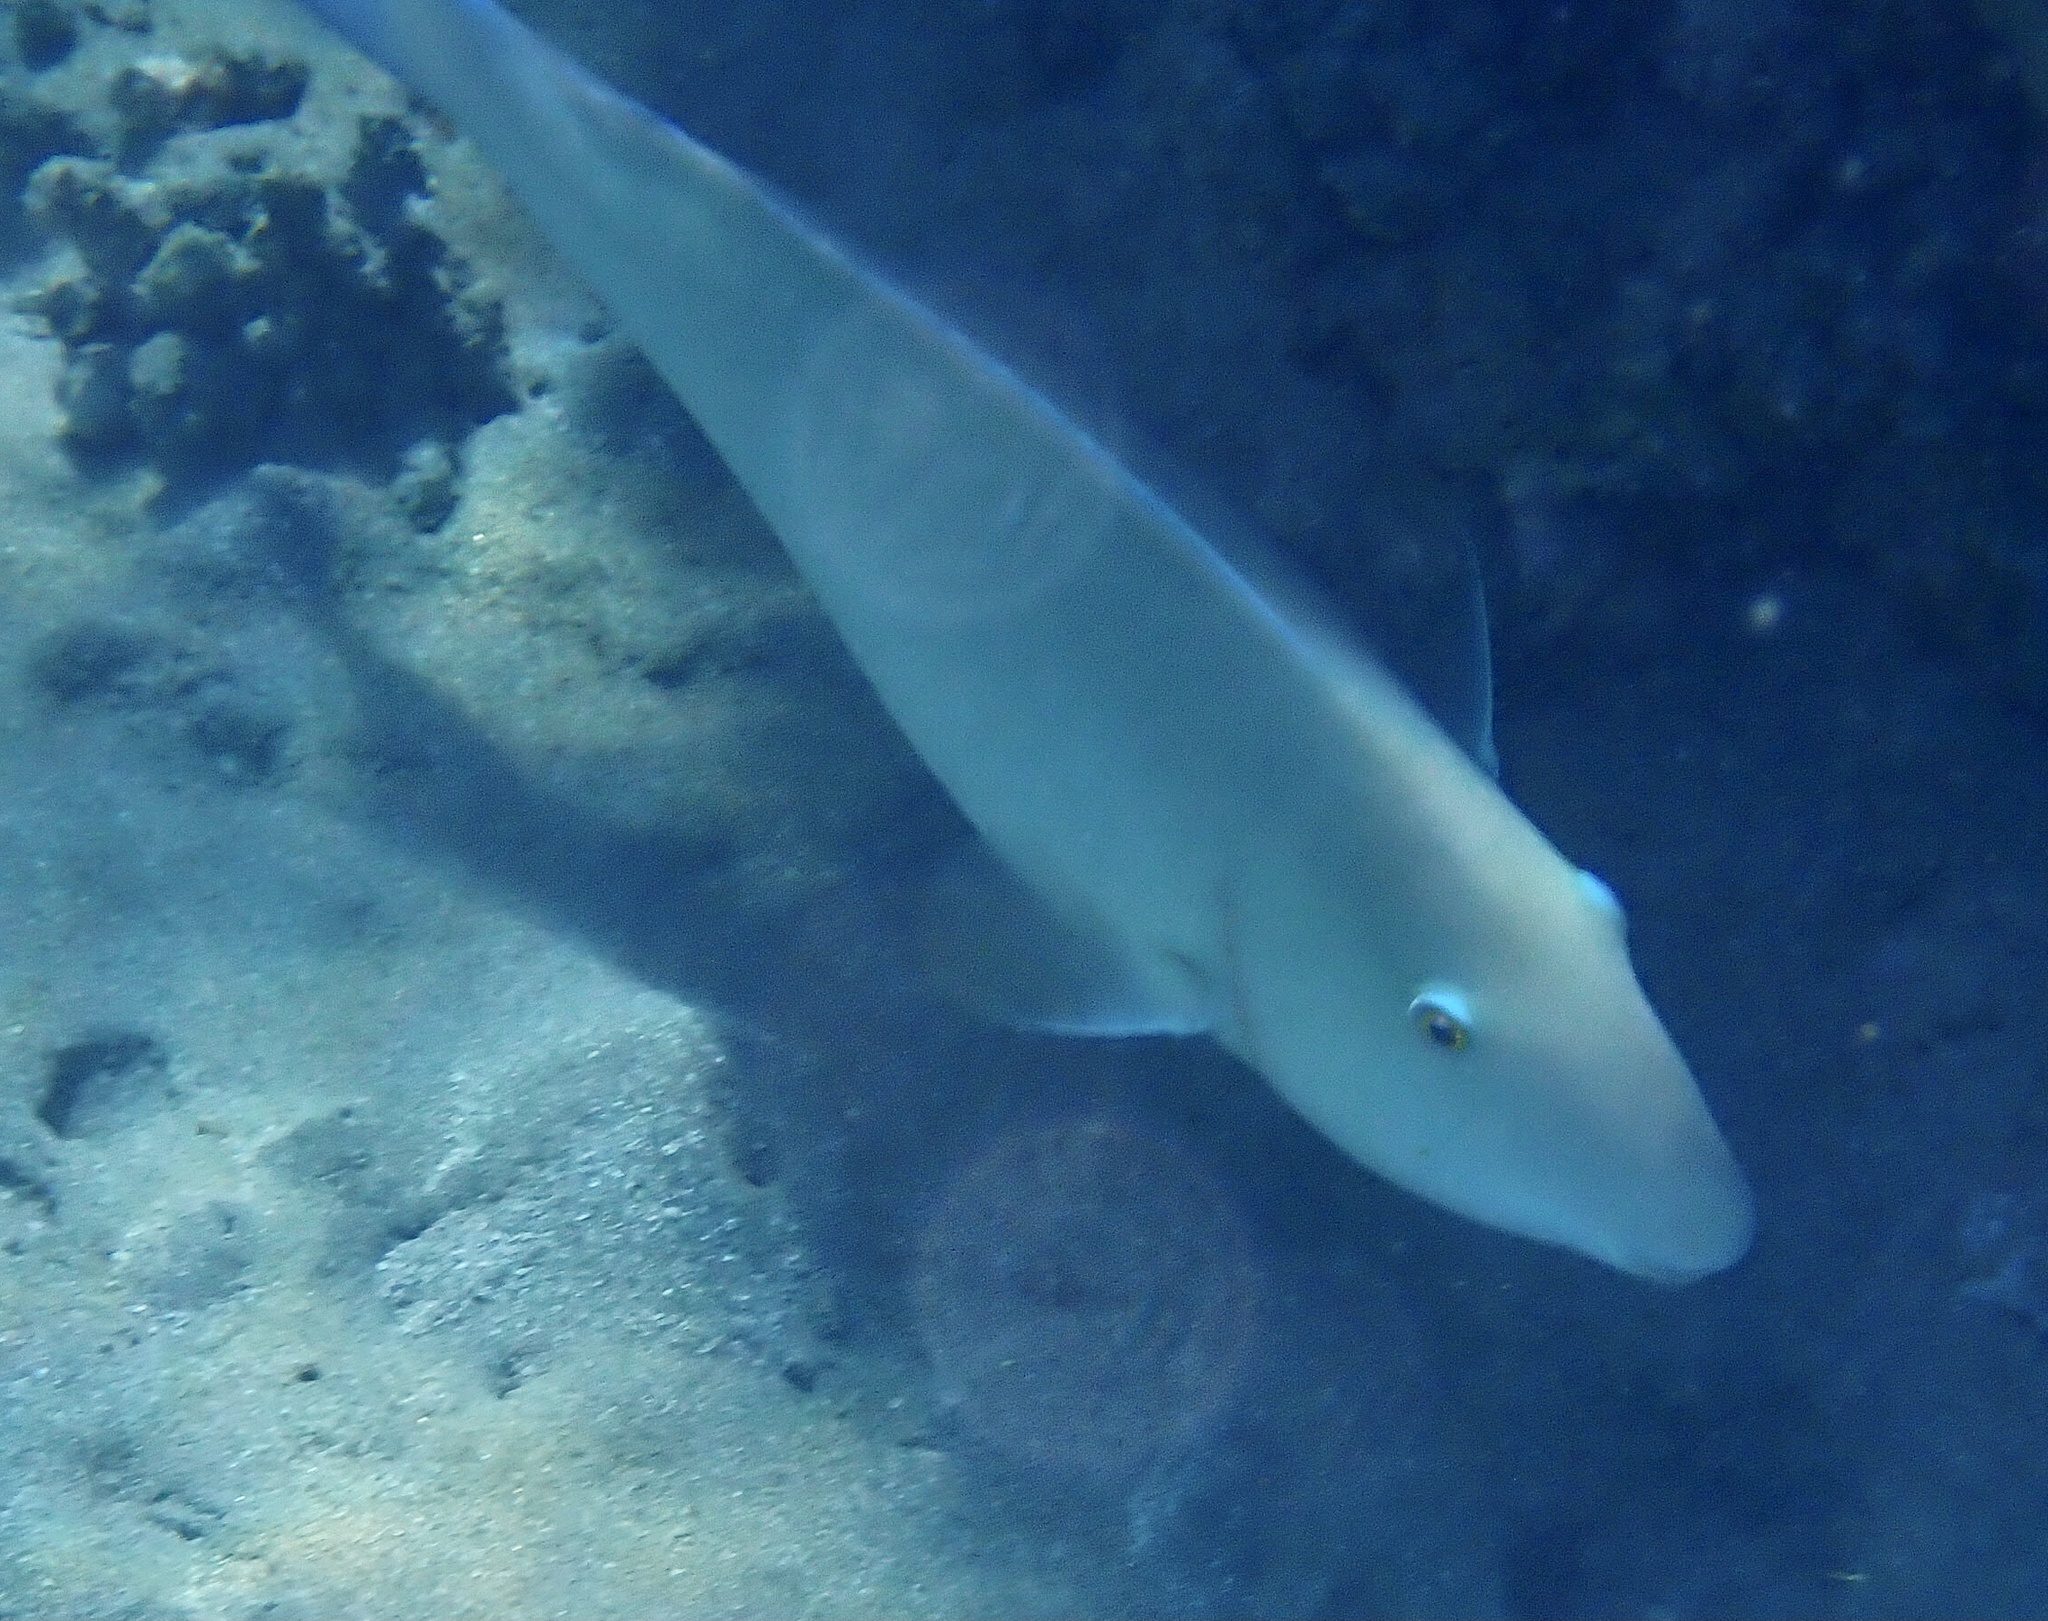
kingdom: Animalia
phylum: Chordata
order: Perciformes
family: Scaridae
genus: Hipposcarus
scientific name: Hipposcarus harid
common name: Candelamoa parrotfish
